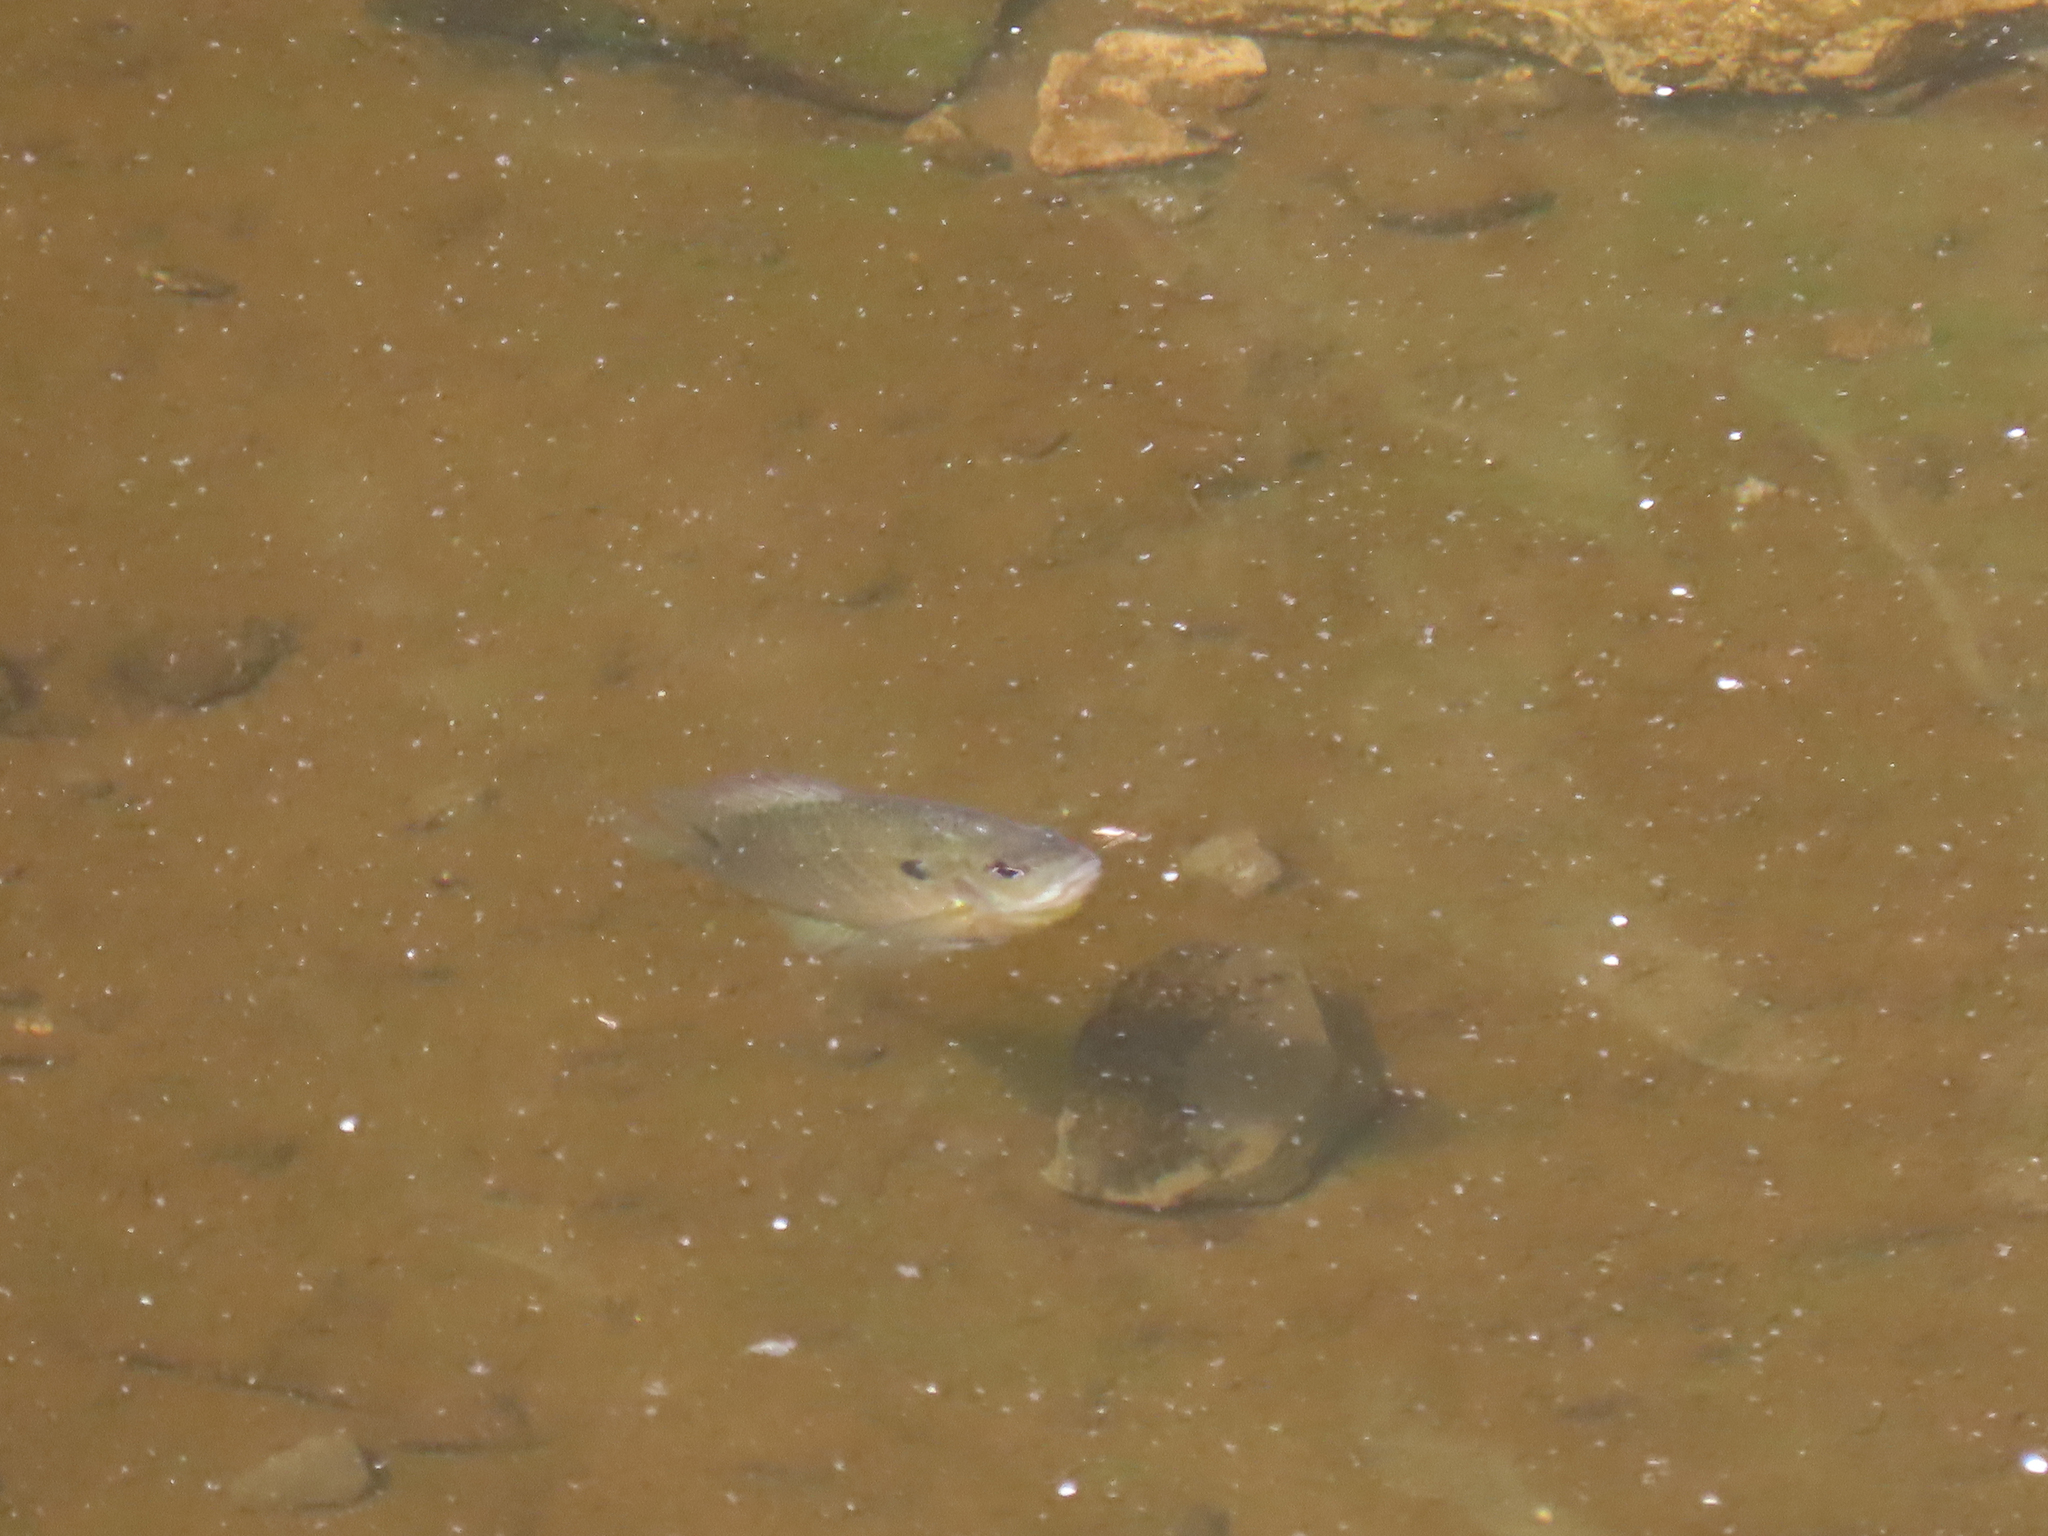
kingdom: Animalia
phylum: Chordata
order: Perciformes
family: Centrarchidae
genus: Lepomis
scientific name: Lepomis macrochirus
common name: Bluegill
